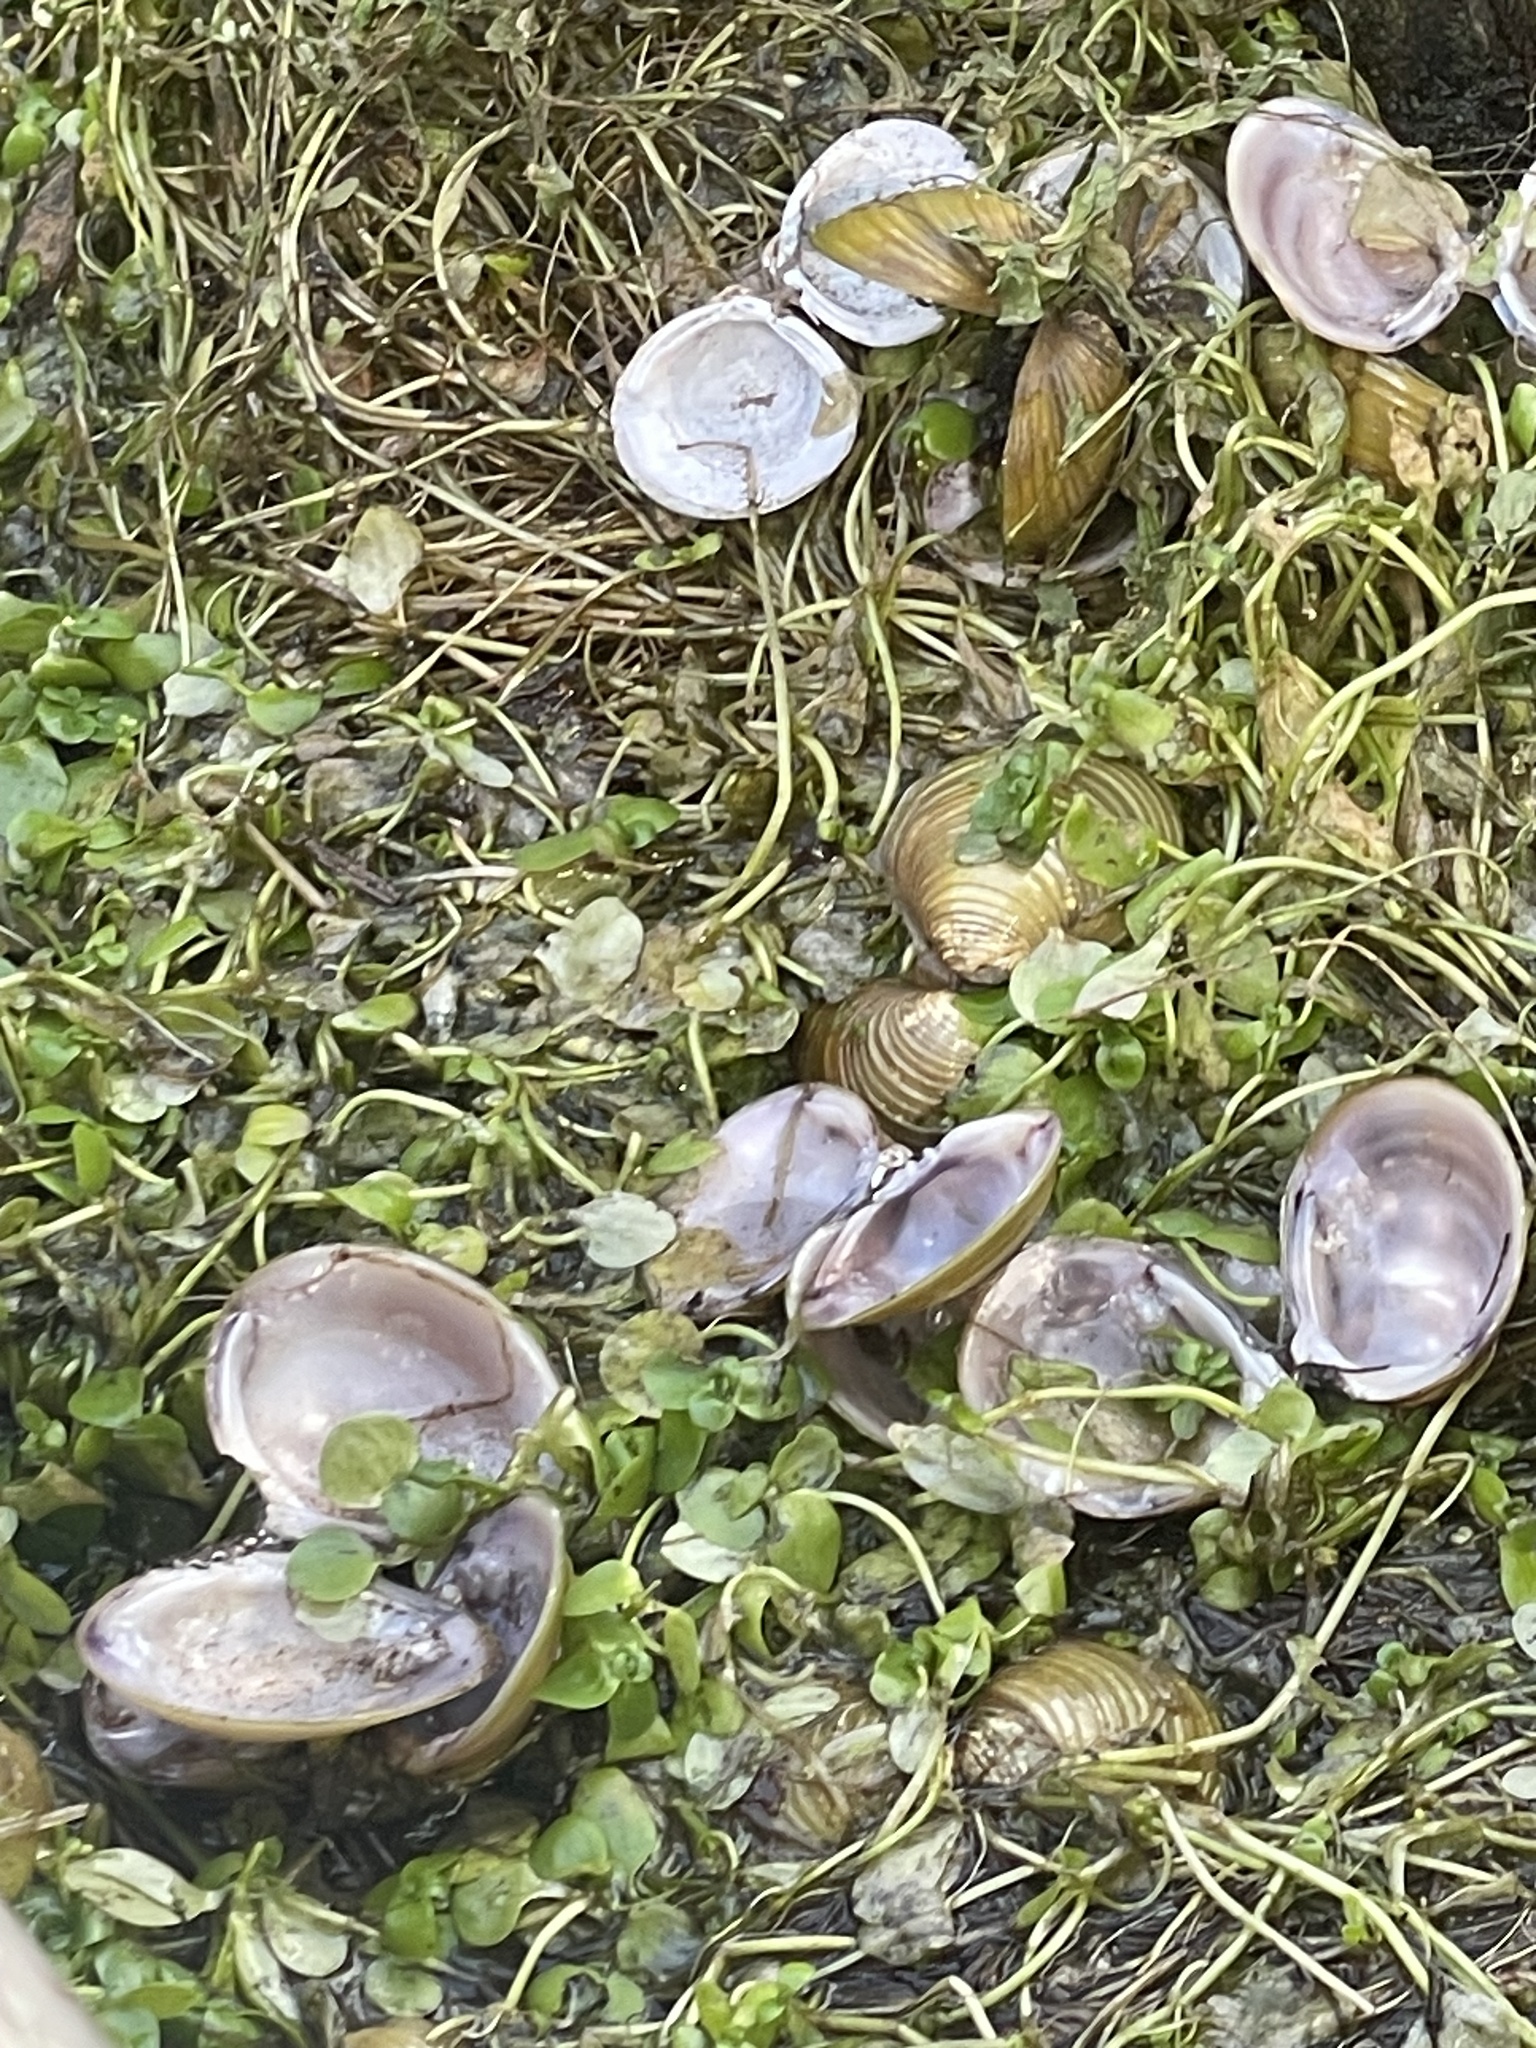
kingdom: Animalia
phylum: Mollusca
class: Bivalvia
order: Venerida
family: Cyrenidae
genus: Corbicula
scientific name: Corbicula fluminea
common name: Asian clam
